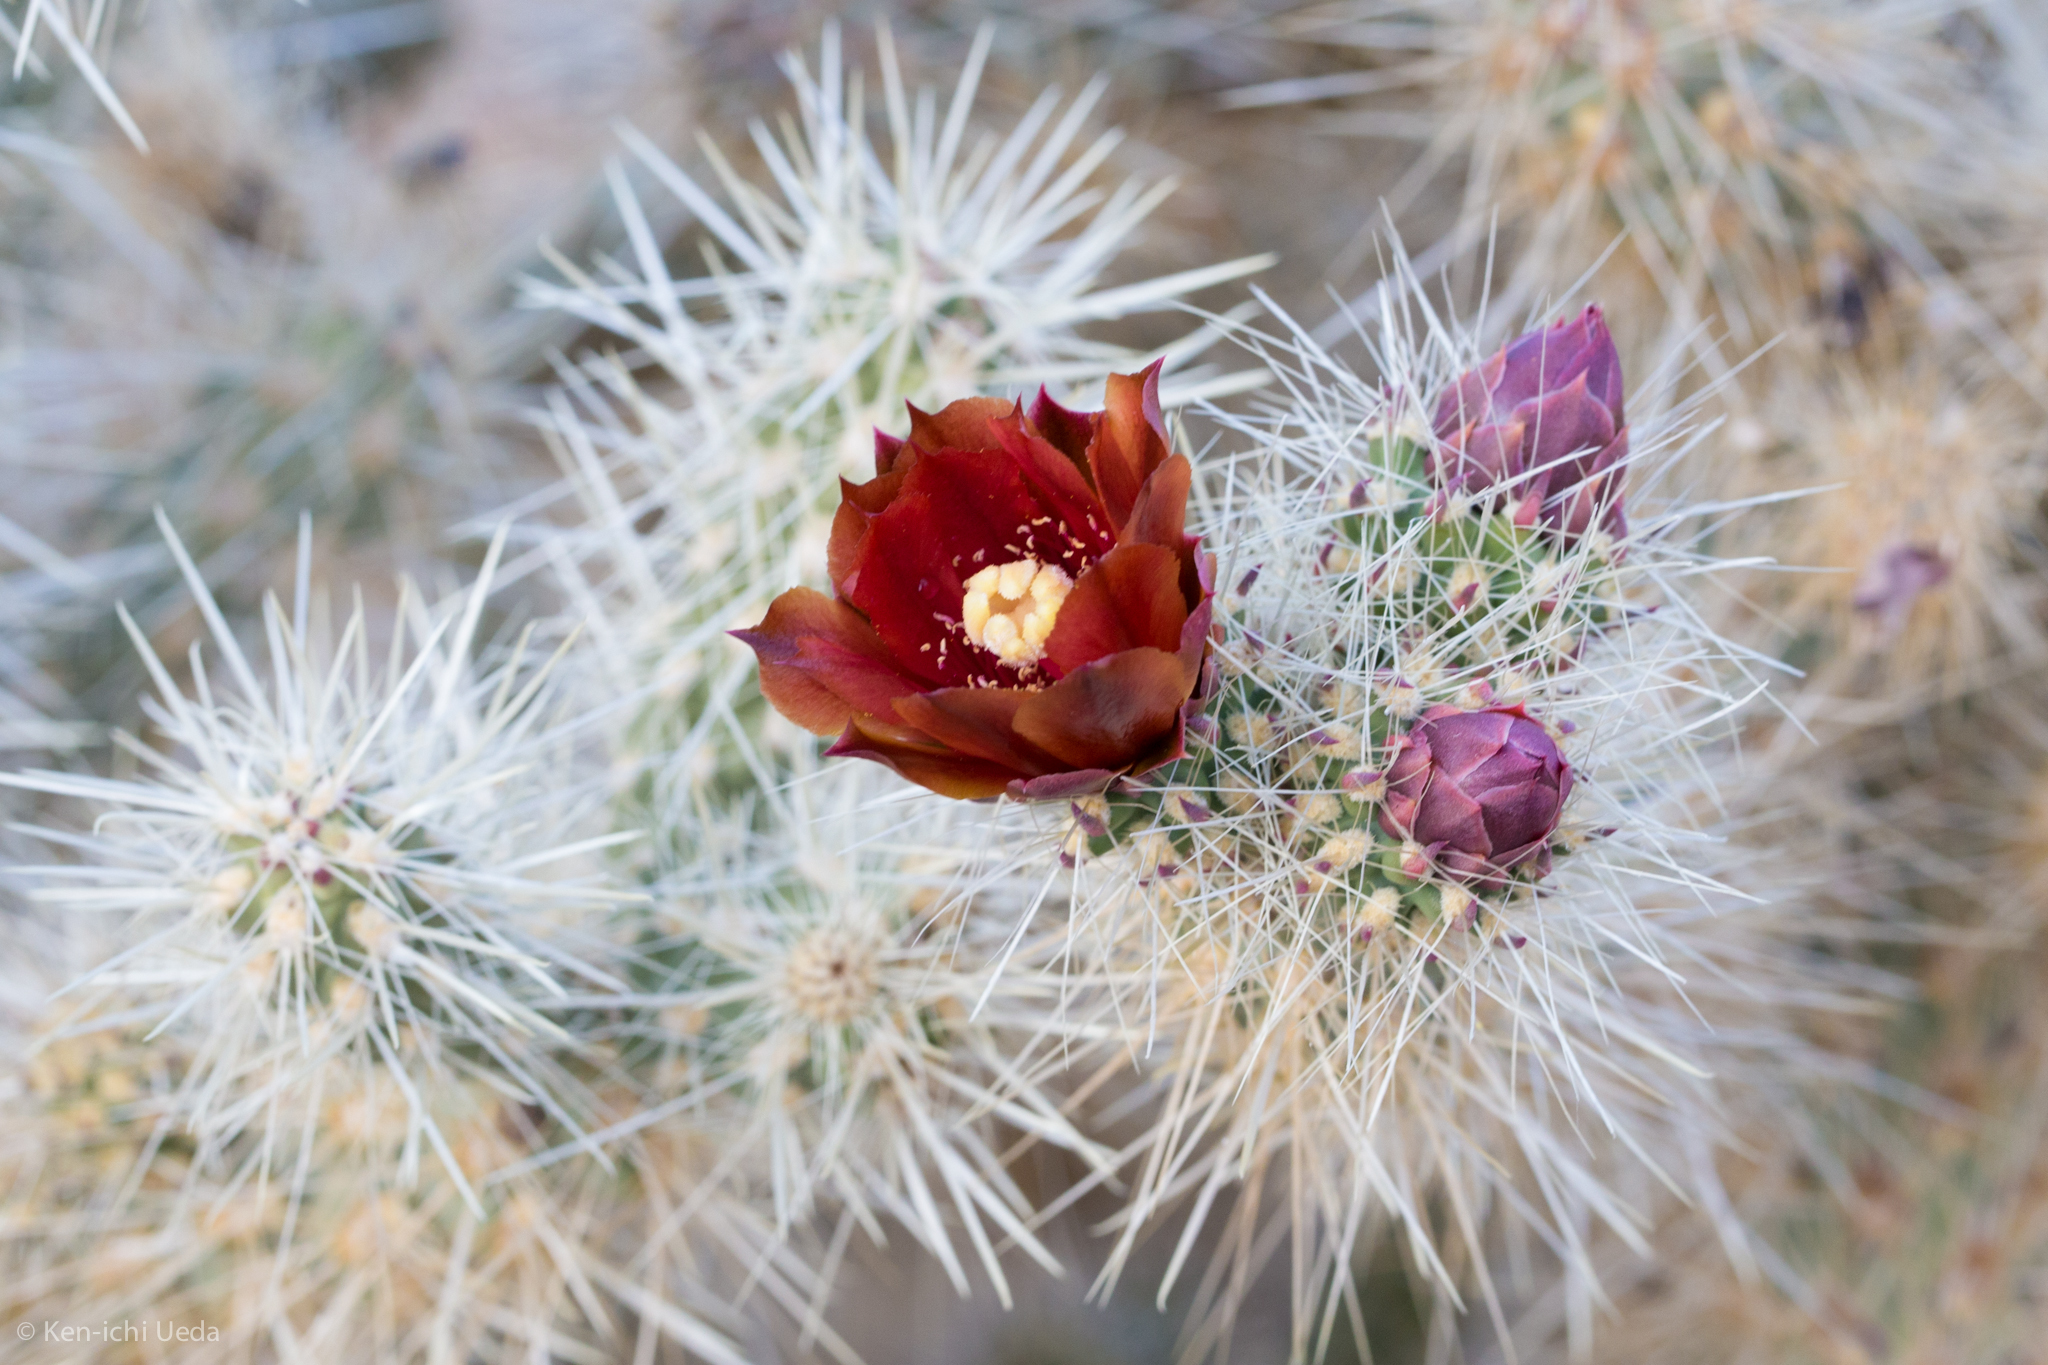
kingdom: Plantae
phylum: Tracheophyta
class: Magnoliopsida
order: Caryophyllales
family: Cactaceae
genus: Cylindropuntia
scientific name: Cylindropuntia chuckwallensis
